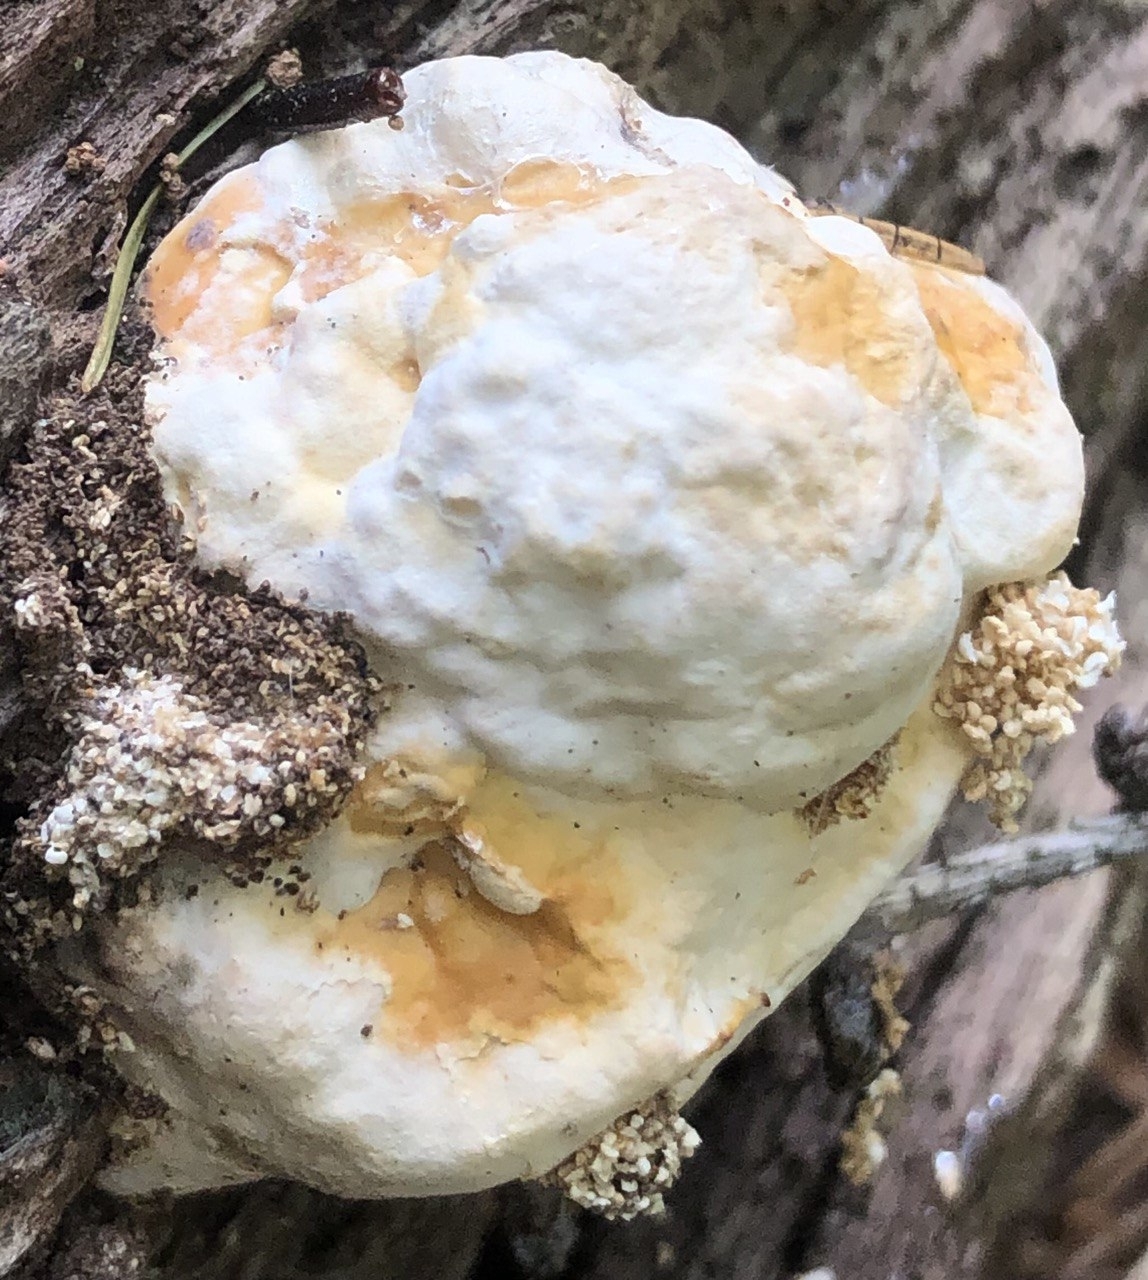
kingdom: Fungi
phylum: Basidiomycota
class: Agaricomycetes
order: Polyporales
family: Fomitopsidaceae
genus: Fomitopsis
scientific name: Fomitopsis pinicola
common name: Red-belted bracket
